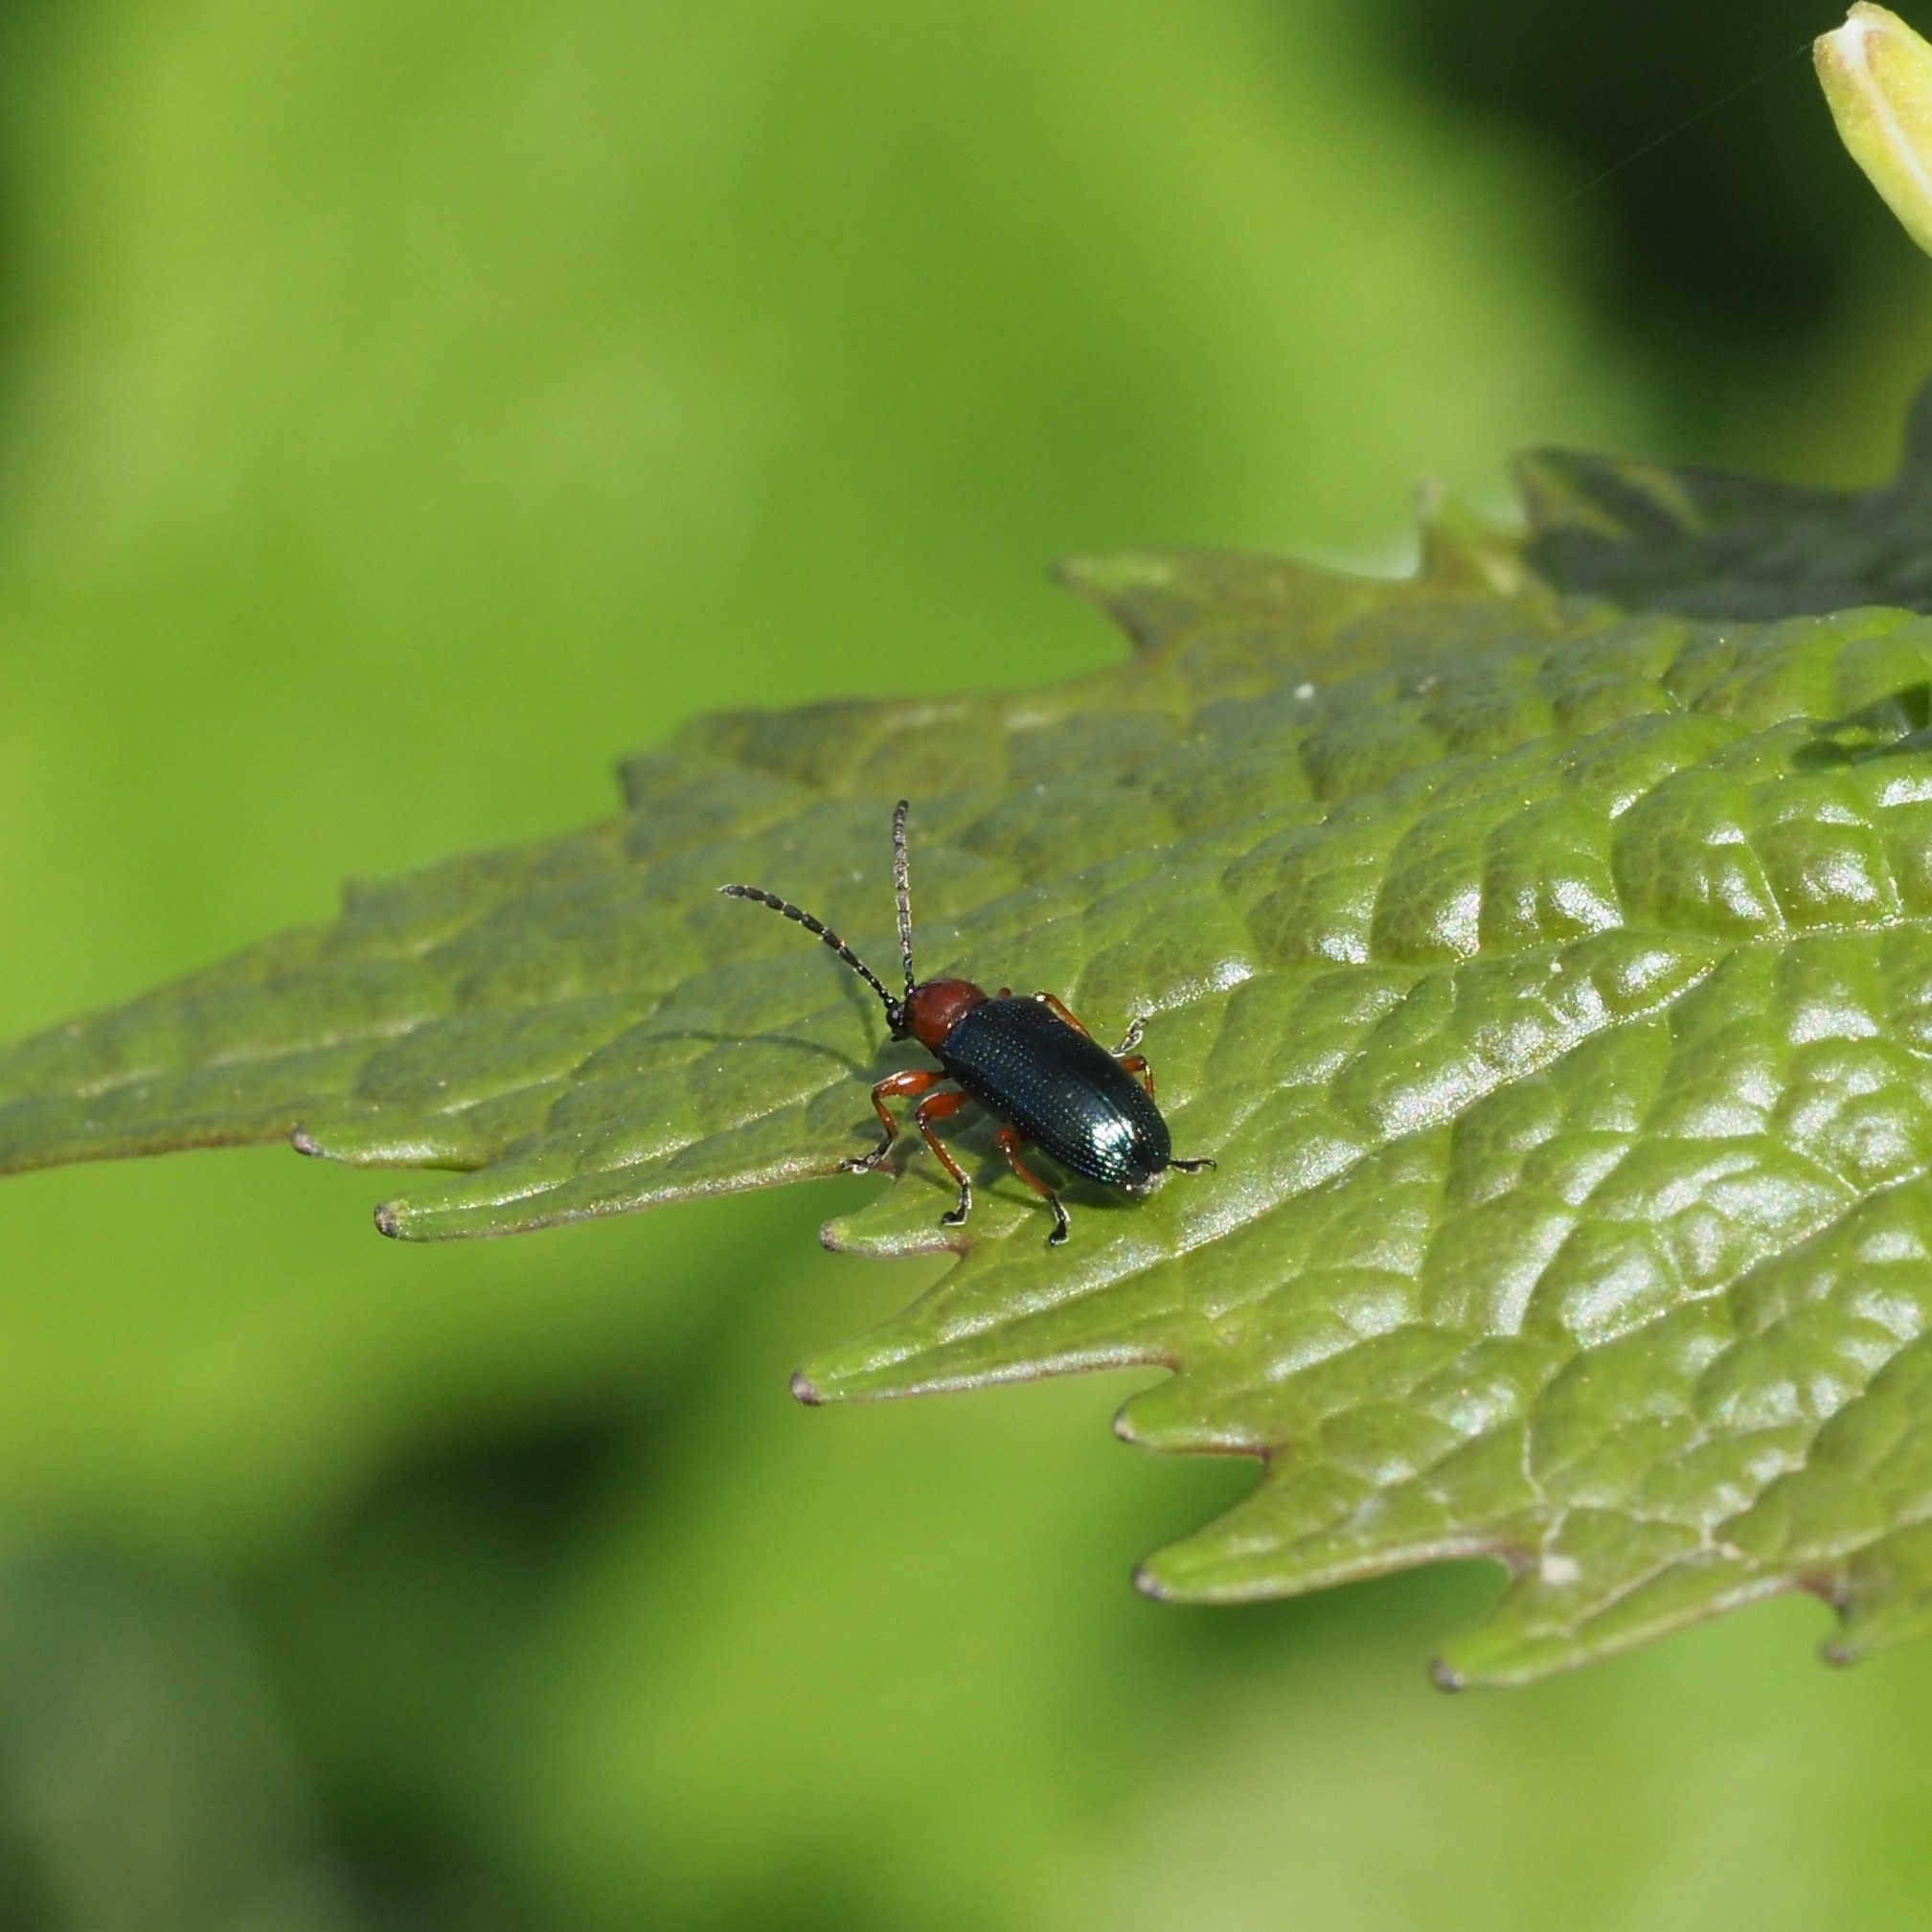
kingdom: Animalia
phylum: Arthropoda
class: Insecta
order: Coleoptera
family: Chrysomelidae
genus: Oulema
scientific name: Oulema
